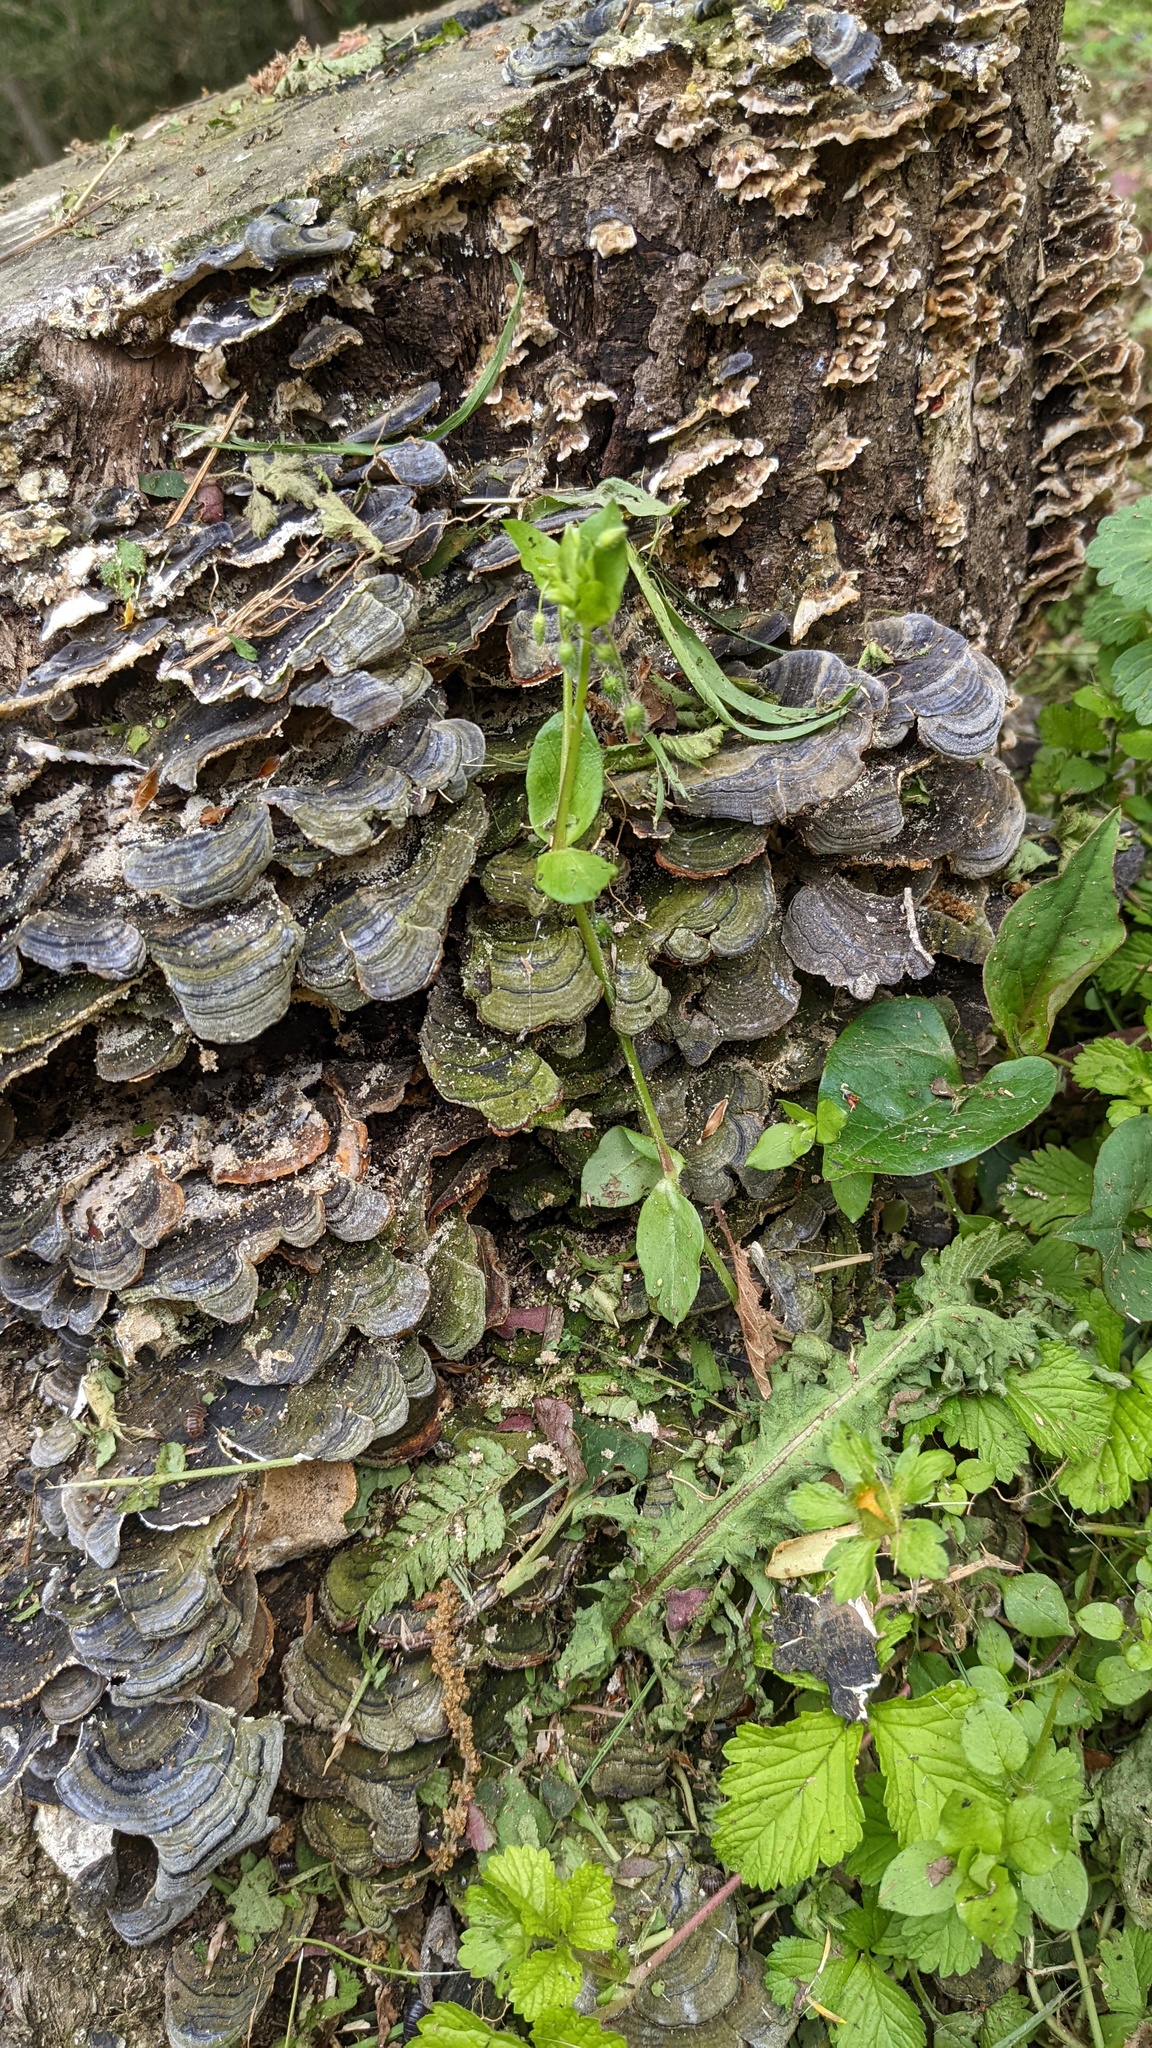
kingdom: Fungi
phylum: Basidiomycota
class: Agaricomycetes
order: Polyporales
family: Polyporaceae
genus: Trametes
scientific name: Trametes versicolor
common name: Turkeytail
